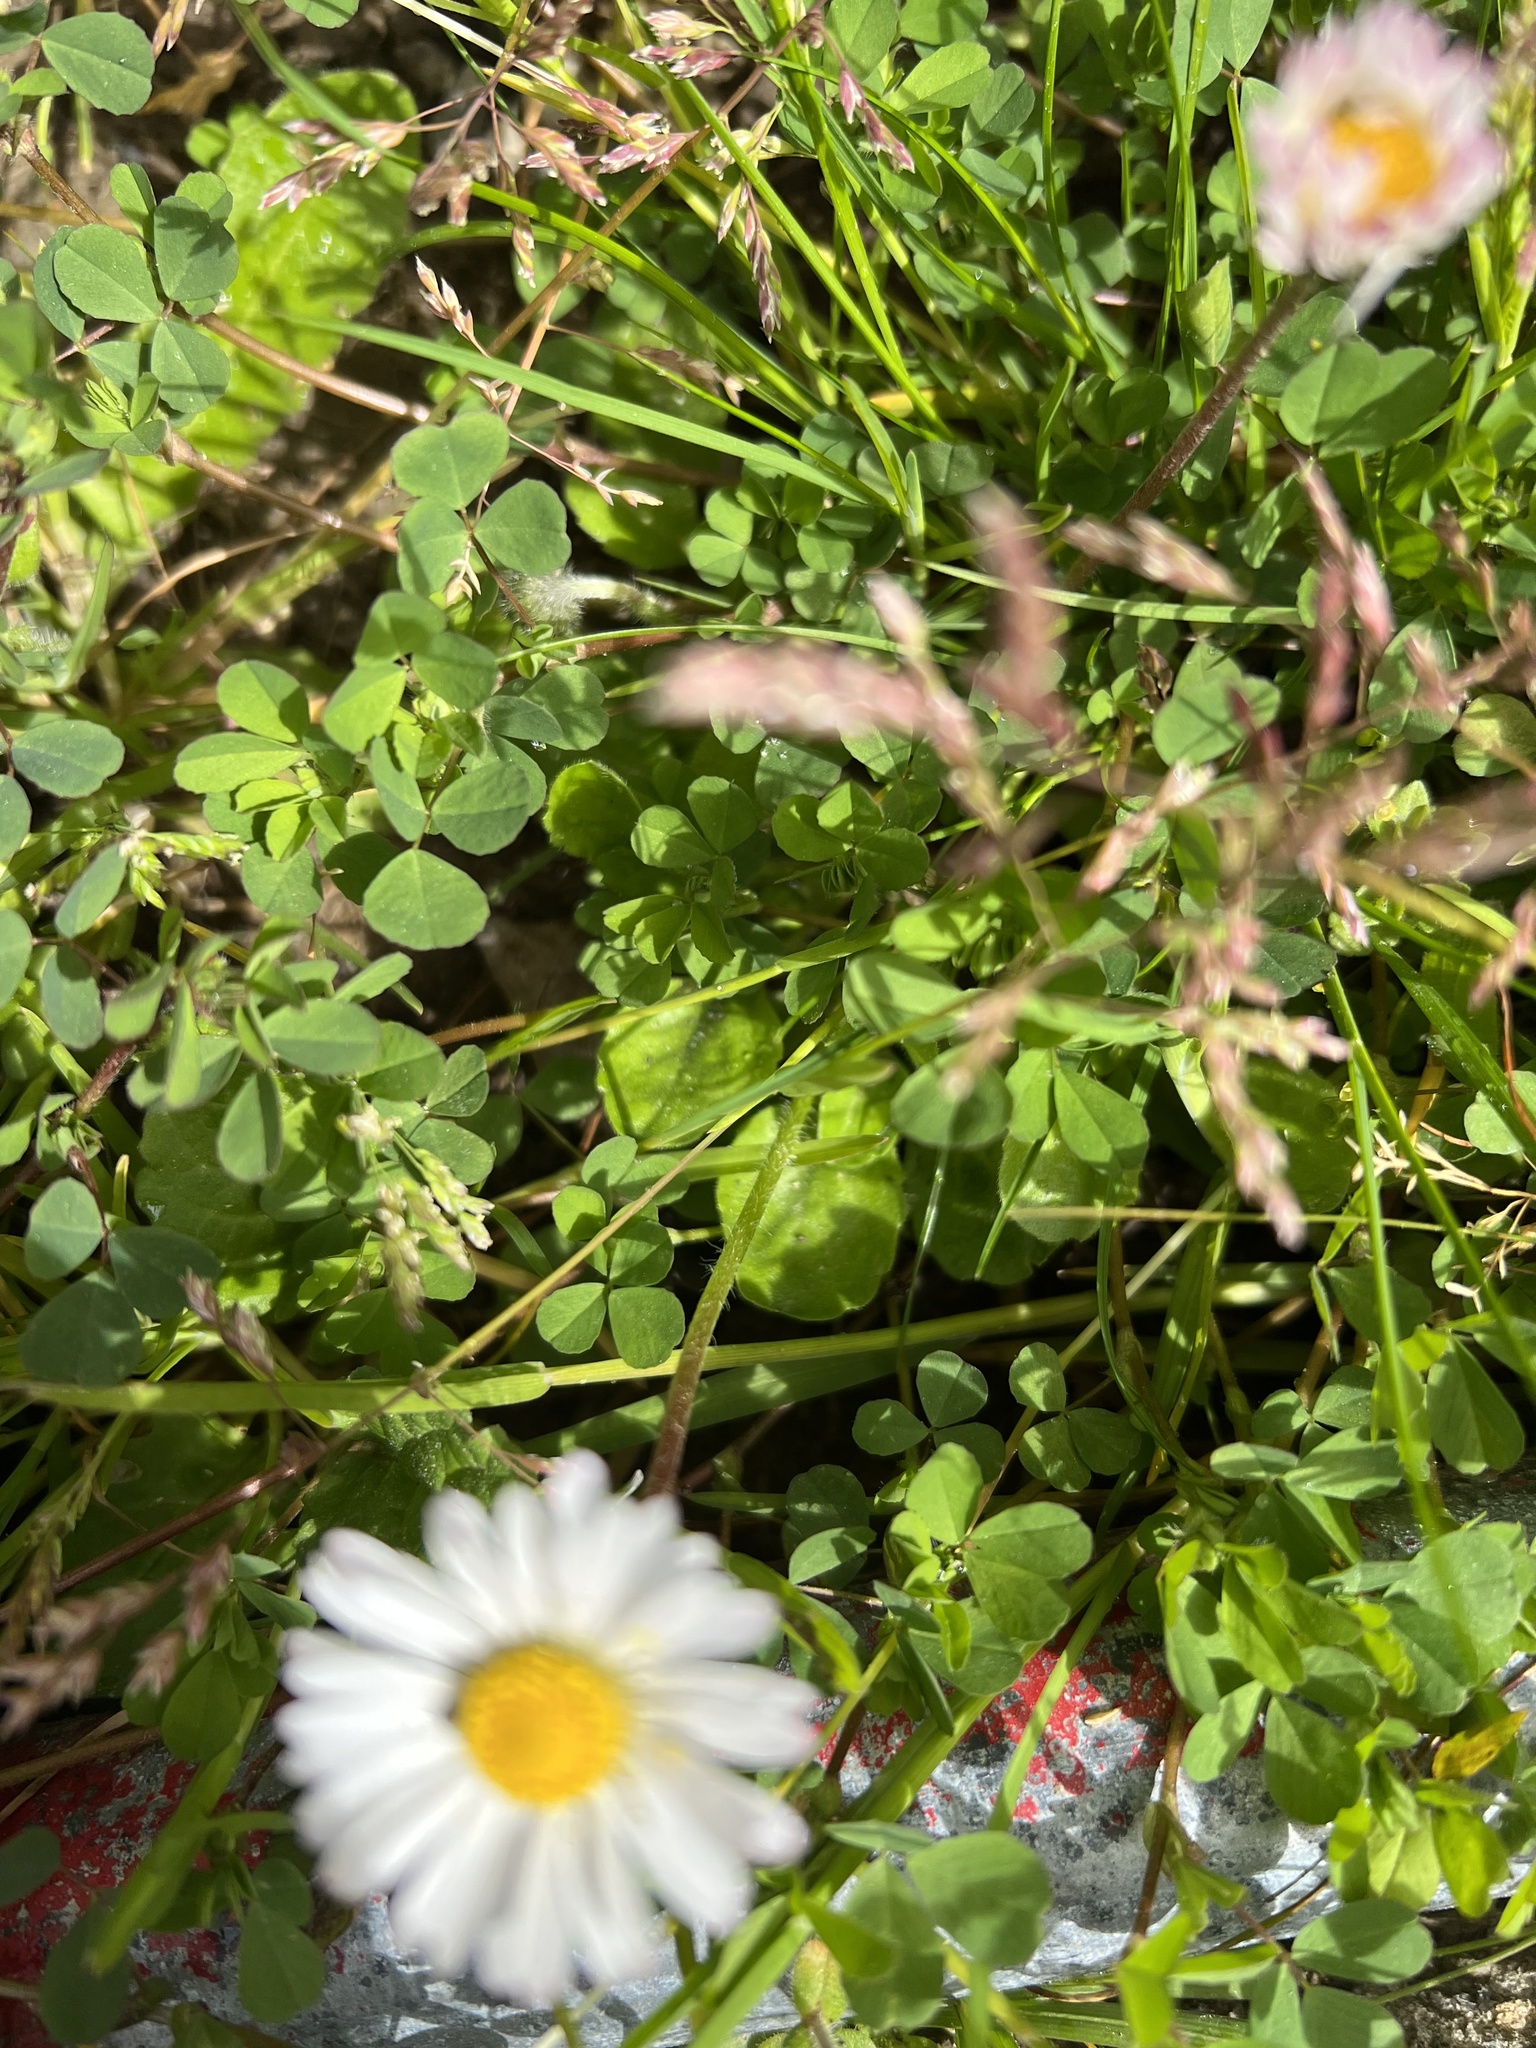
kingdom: Plantae
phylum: Tracheophyta
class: Magnoliopsida
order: Asterales
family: Asteraceae
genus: Bellis
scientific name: Bellis perennis
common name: Lawndaisy
